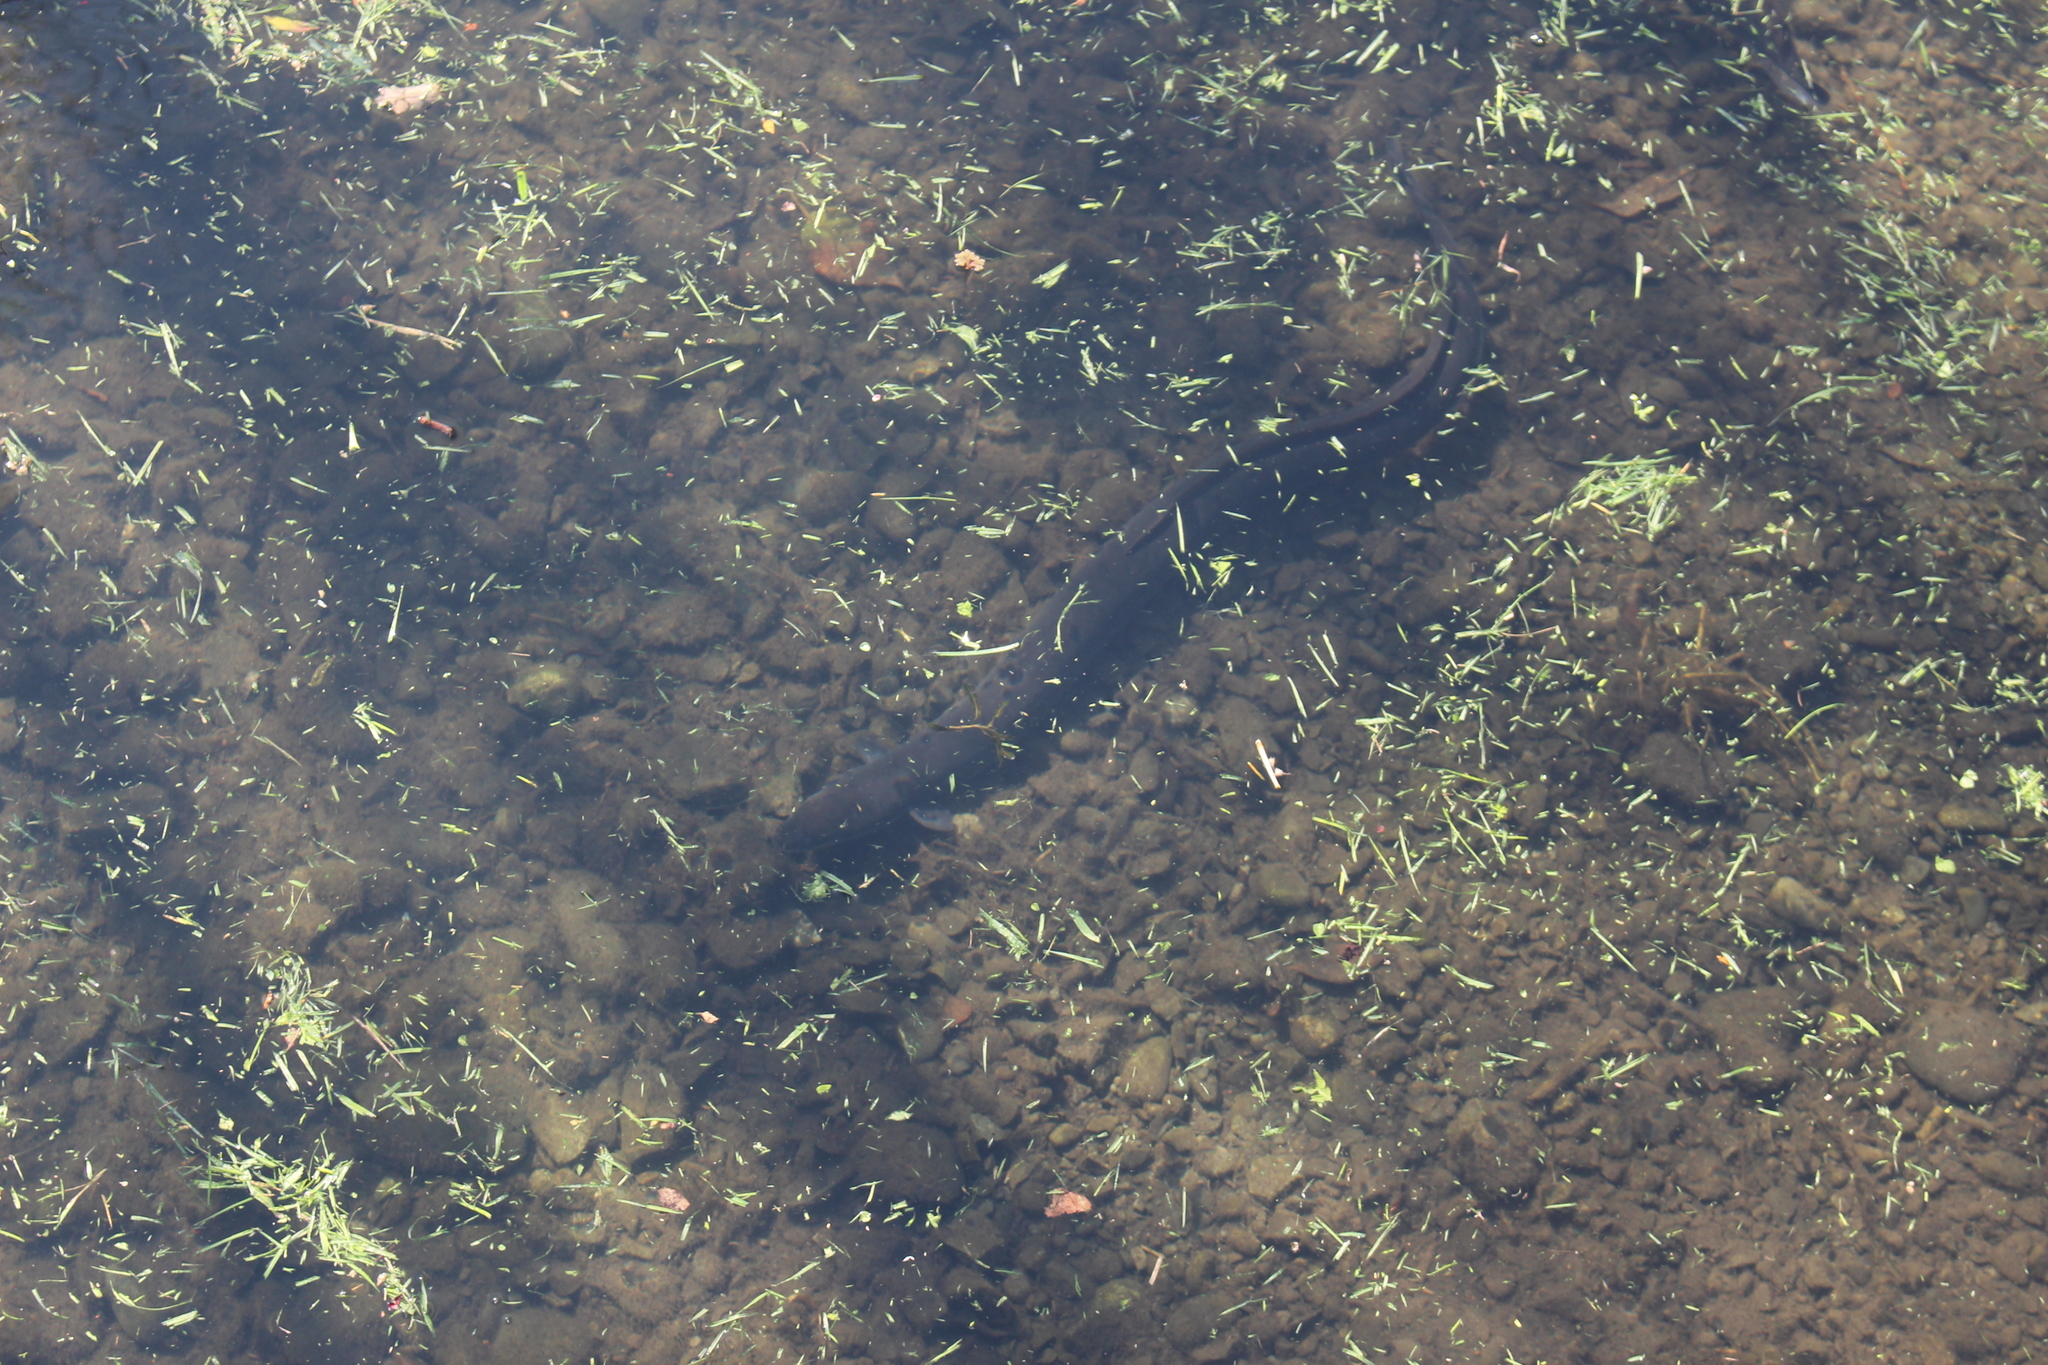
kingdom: Animalia
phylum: Chordata
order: Anguilliformes
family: Anguillidae
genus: Anguilla
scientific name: Anguilla australis
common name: Shortfin eel
